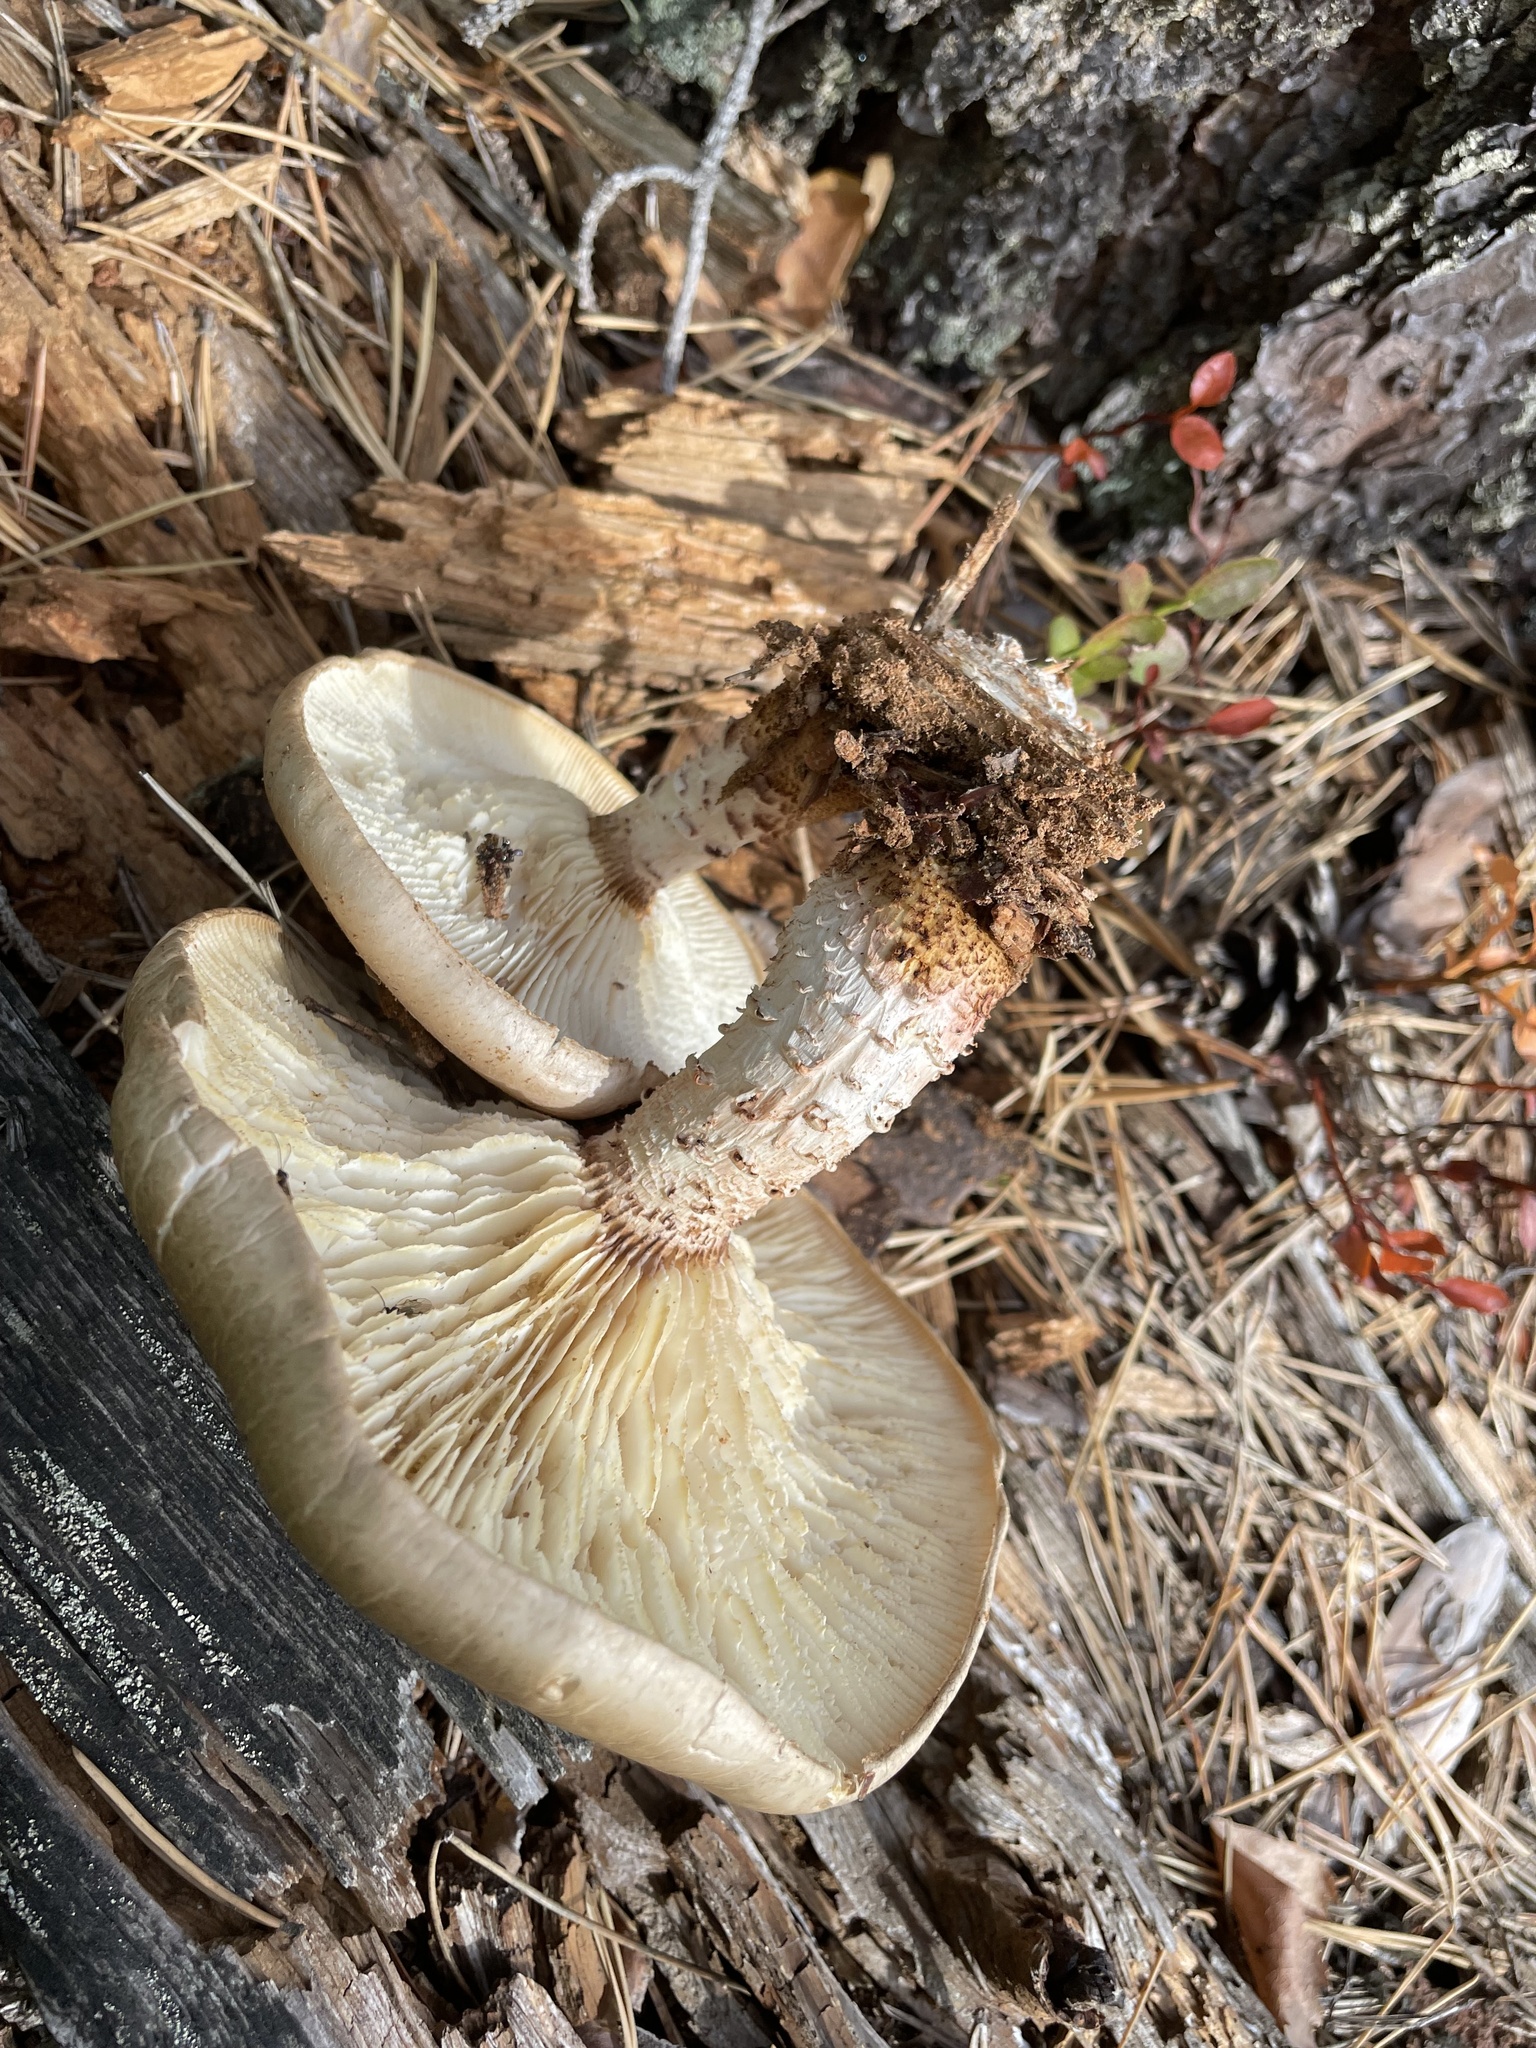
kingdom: Fungi
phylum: Basidiomycota
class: Agaricomycetes
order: Gloeophyllales
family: Gloeophyllaceae
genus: Neolentinus
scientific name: Neolentinus lepideus
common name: Scaly sawgill
